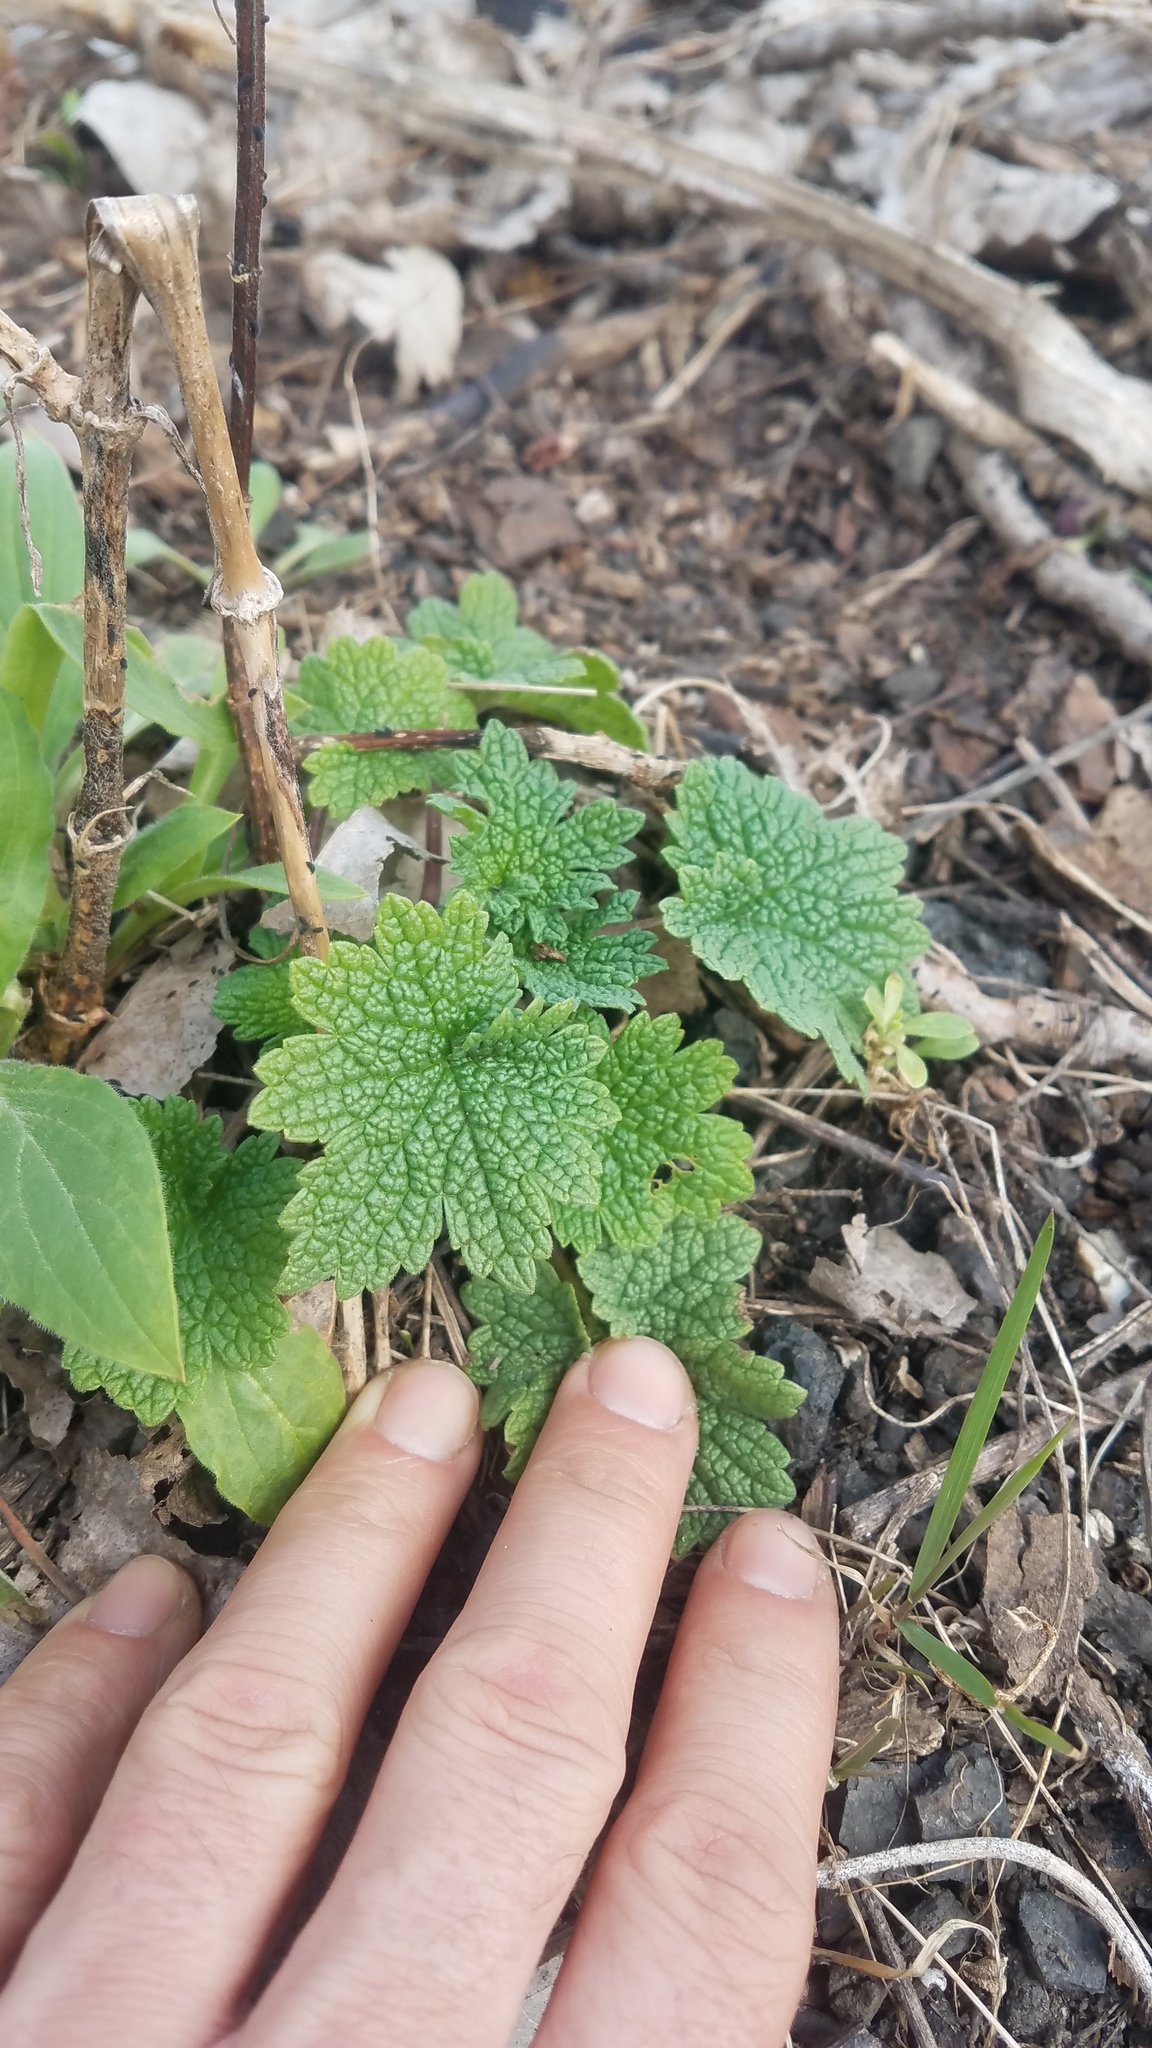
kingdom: Plantae
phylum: Tracheophyta
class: Magnoliopsida
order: Lamiales
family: Lamiaceae
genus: Leonurus
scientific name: Leonurus cardiaca
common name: Motherwort
